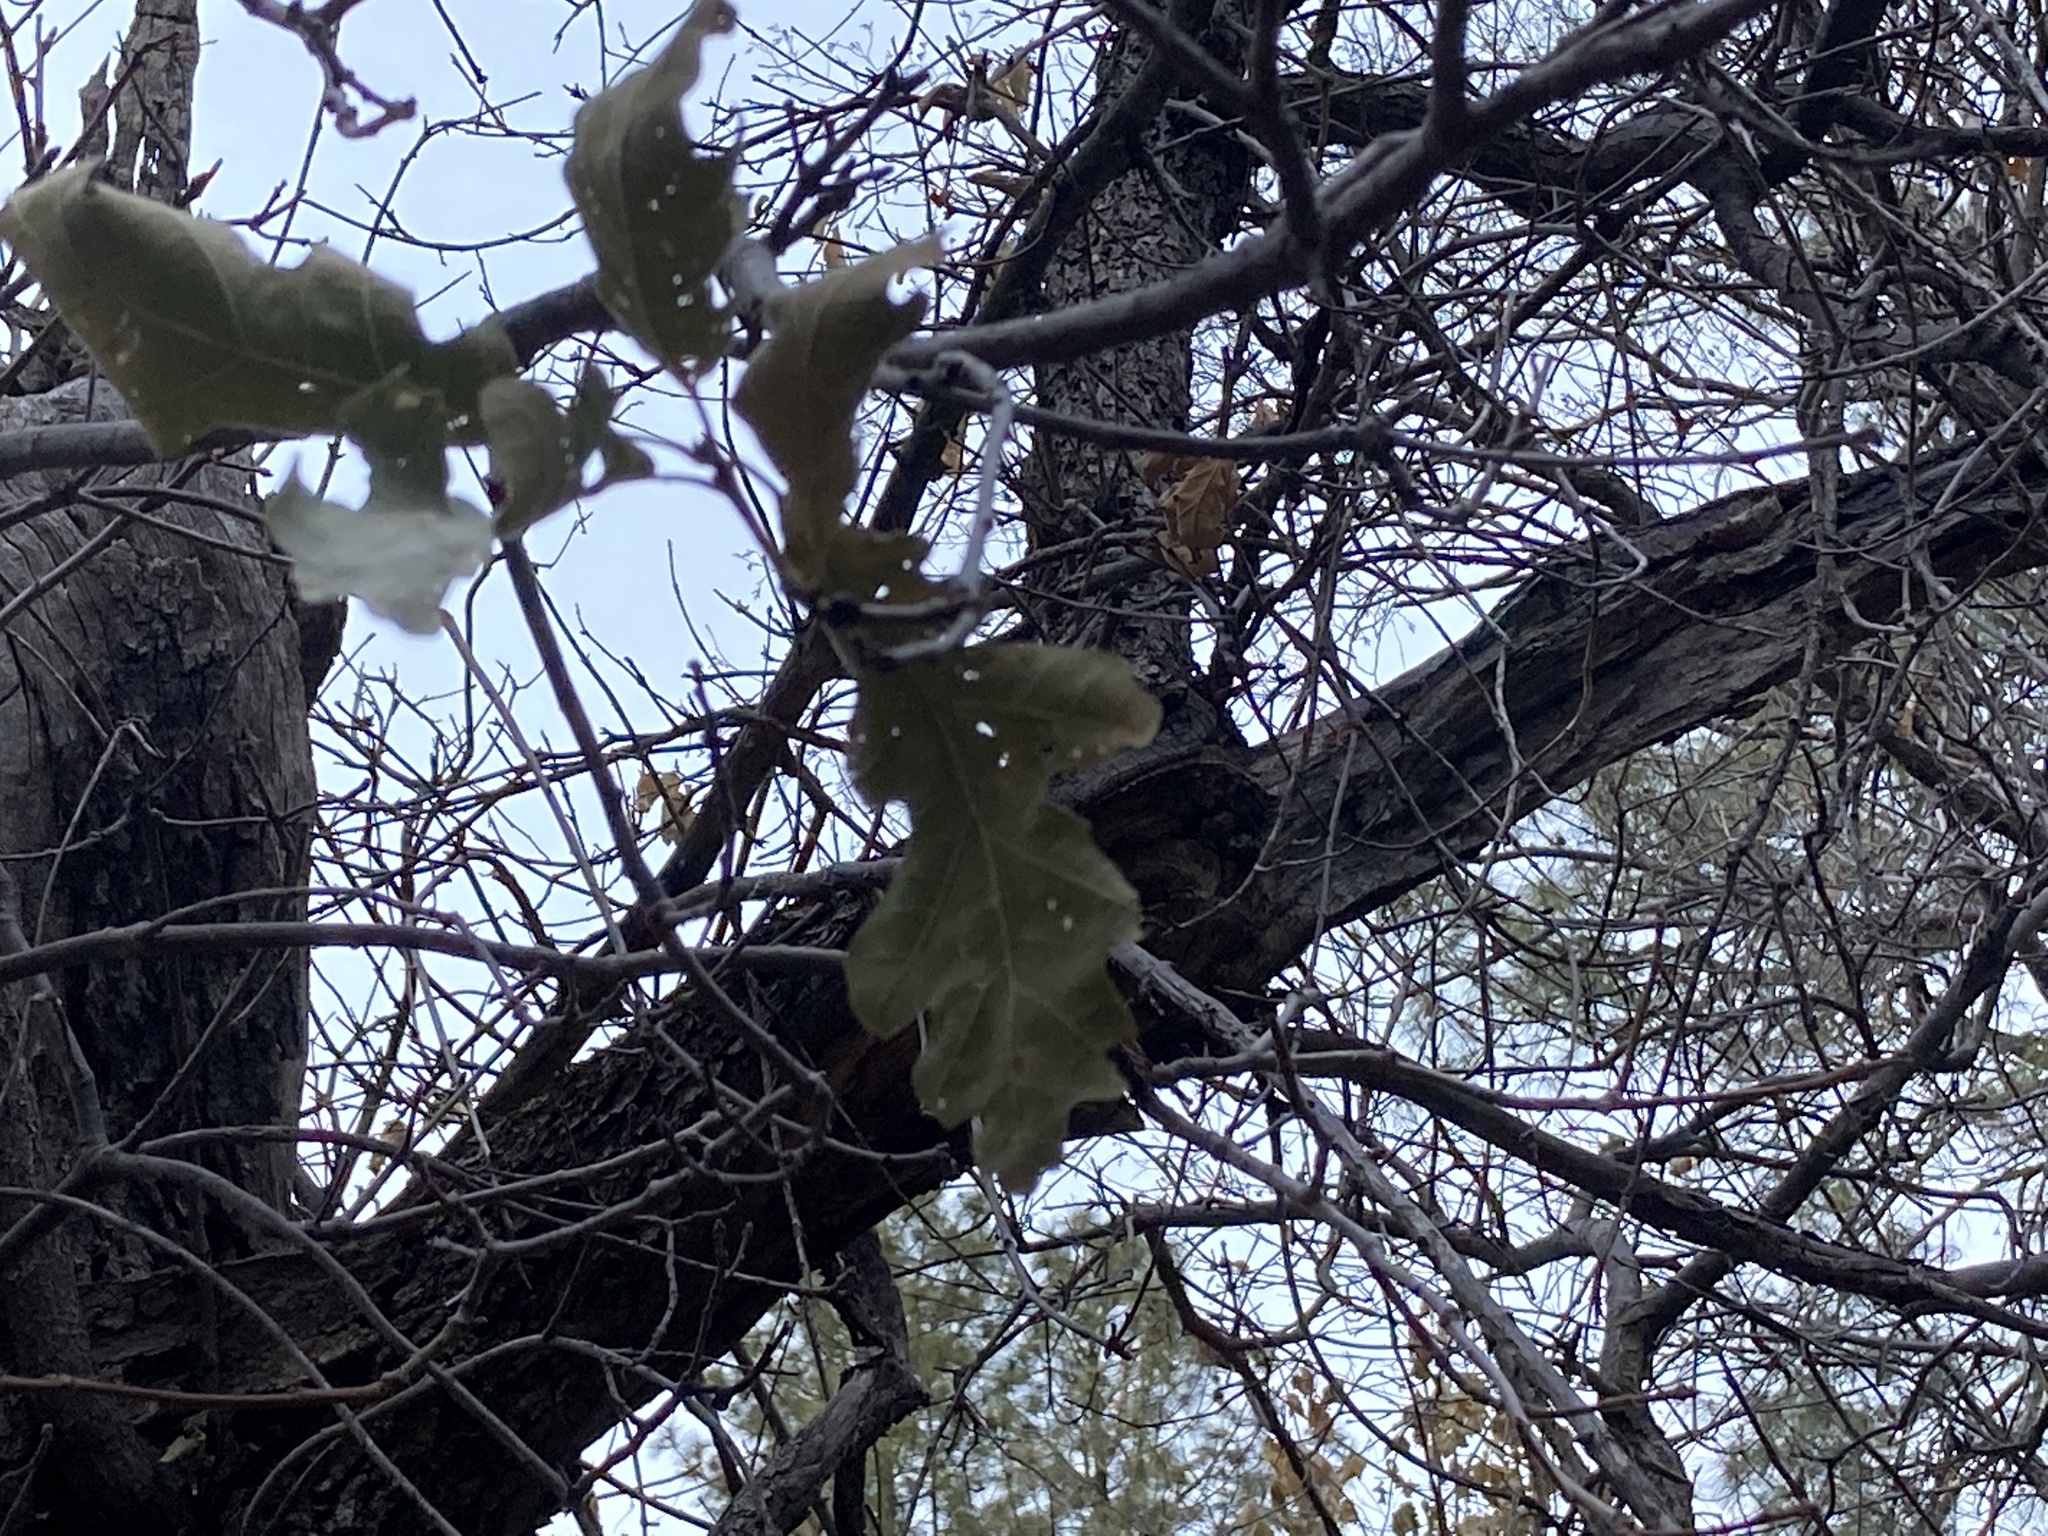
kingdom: Plantae
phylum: Tracheophyta
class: Magnoliopsida
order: Fagales
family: Fagaceae
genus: Quercus
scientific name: Quercus gambelii
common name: Gambel oak
